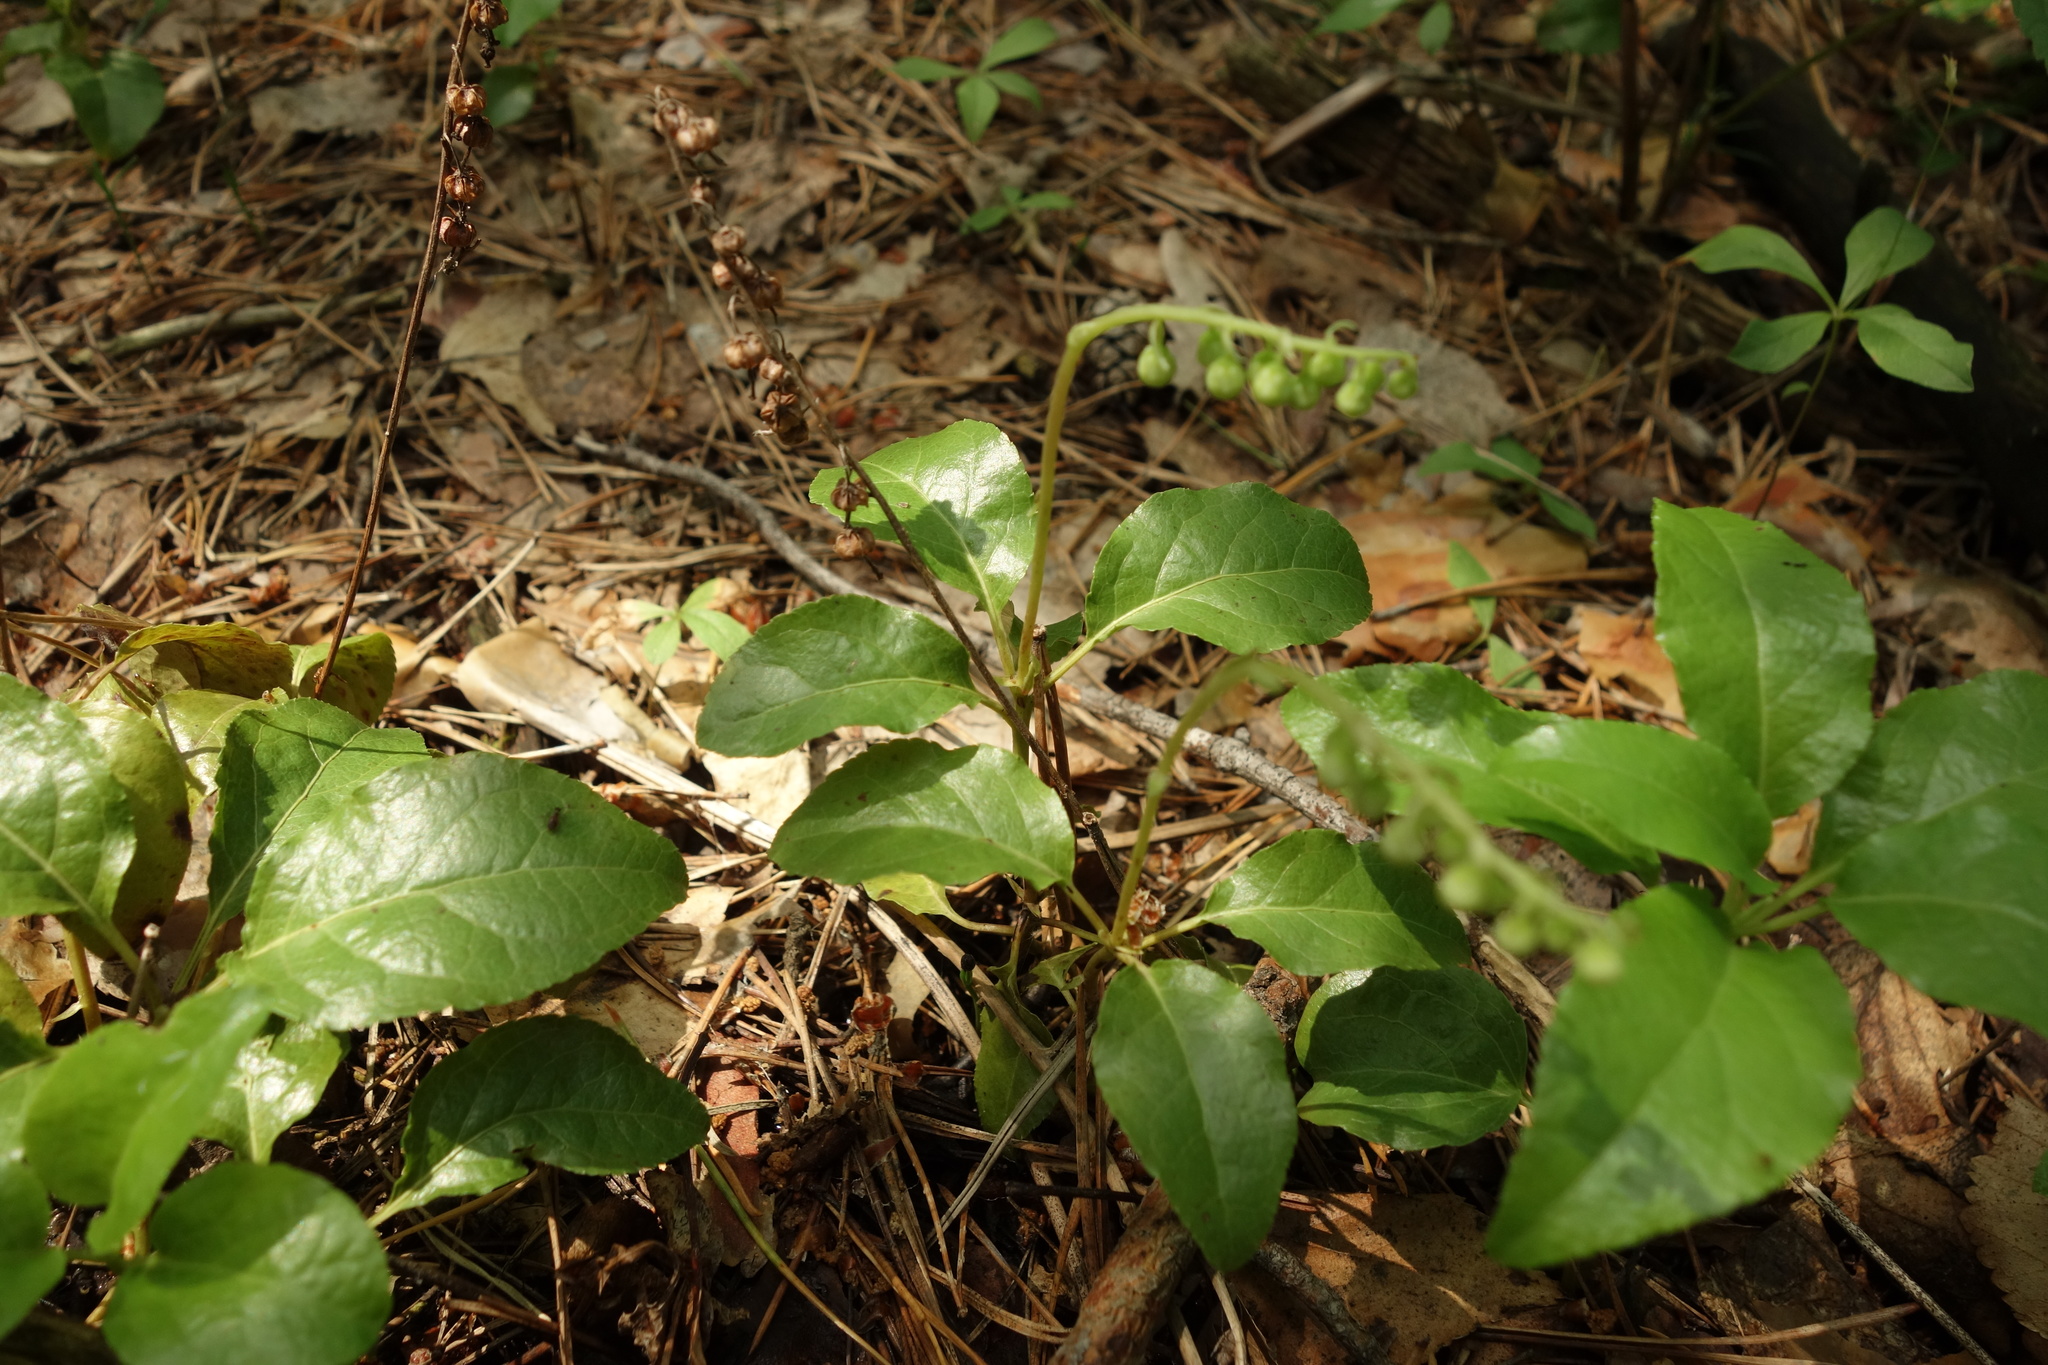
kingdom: Plantae
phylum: Tracheophyta
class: Magnoliopsida
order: Ericales
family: Ericaceae
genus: Orthilia
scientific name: Orthilia secunda
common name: One-sided orthilia
